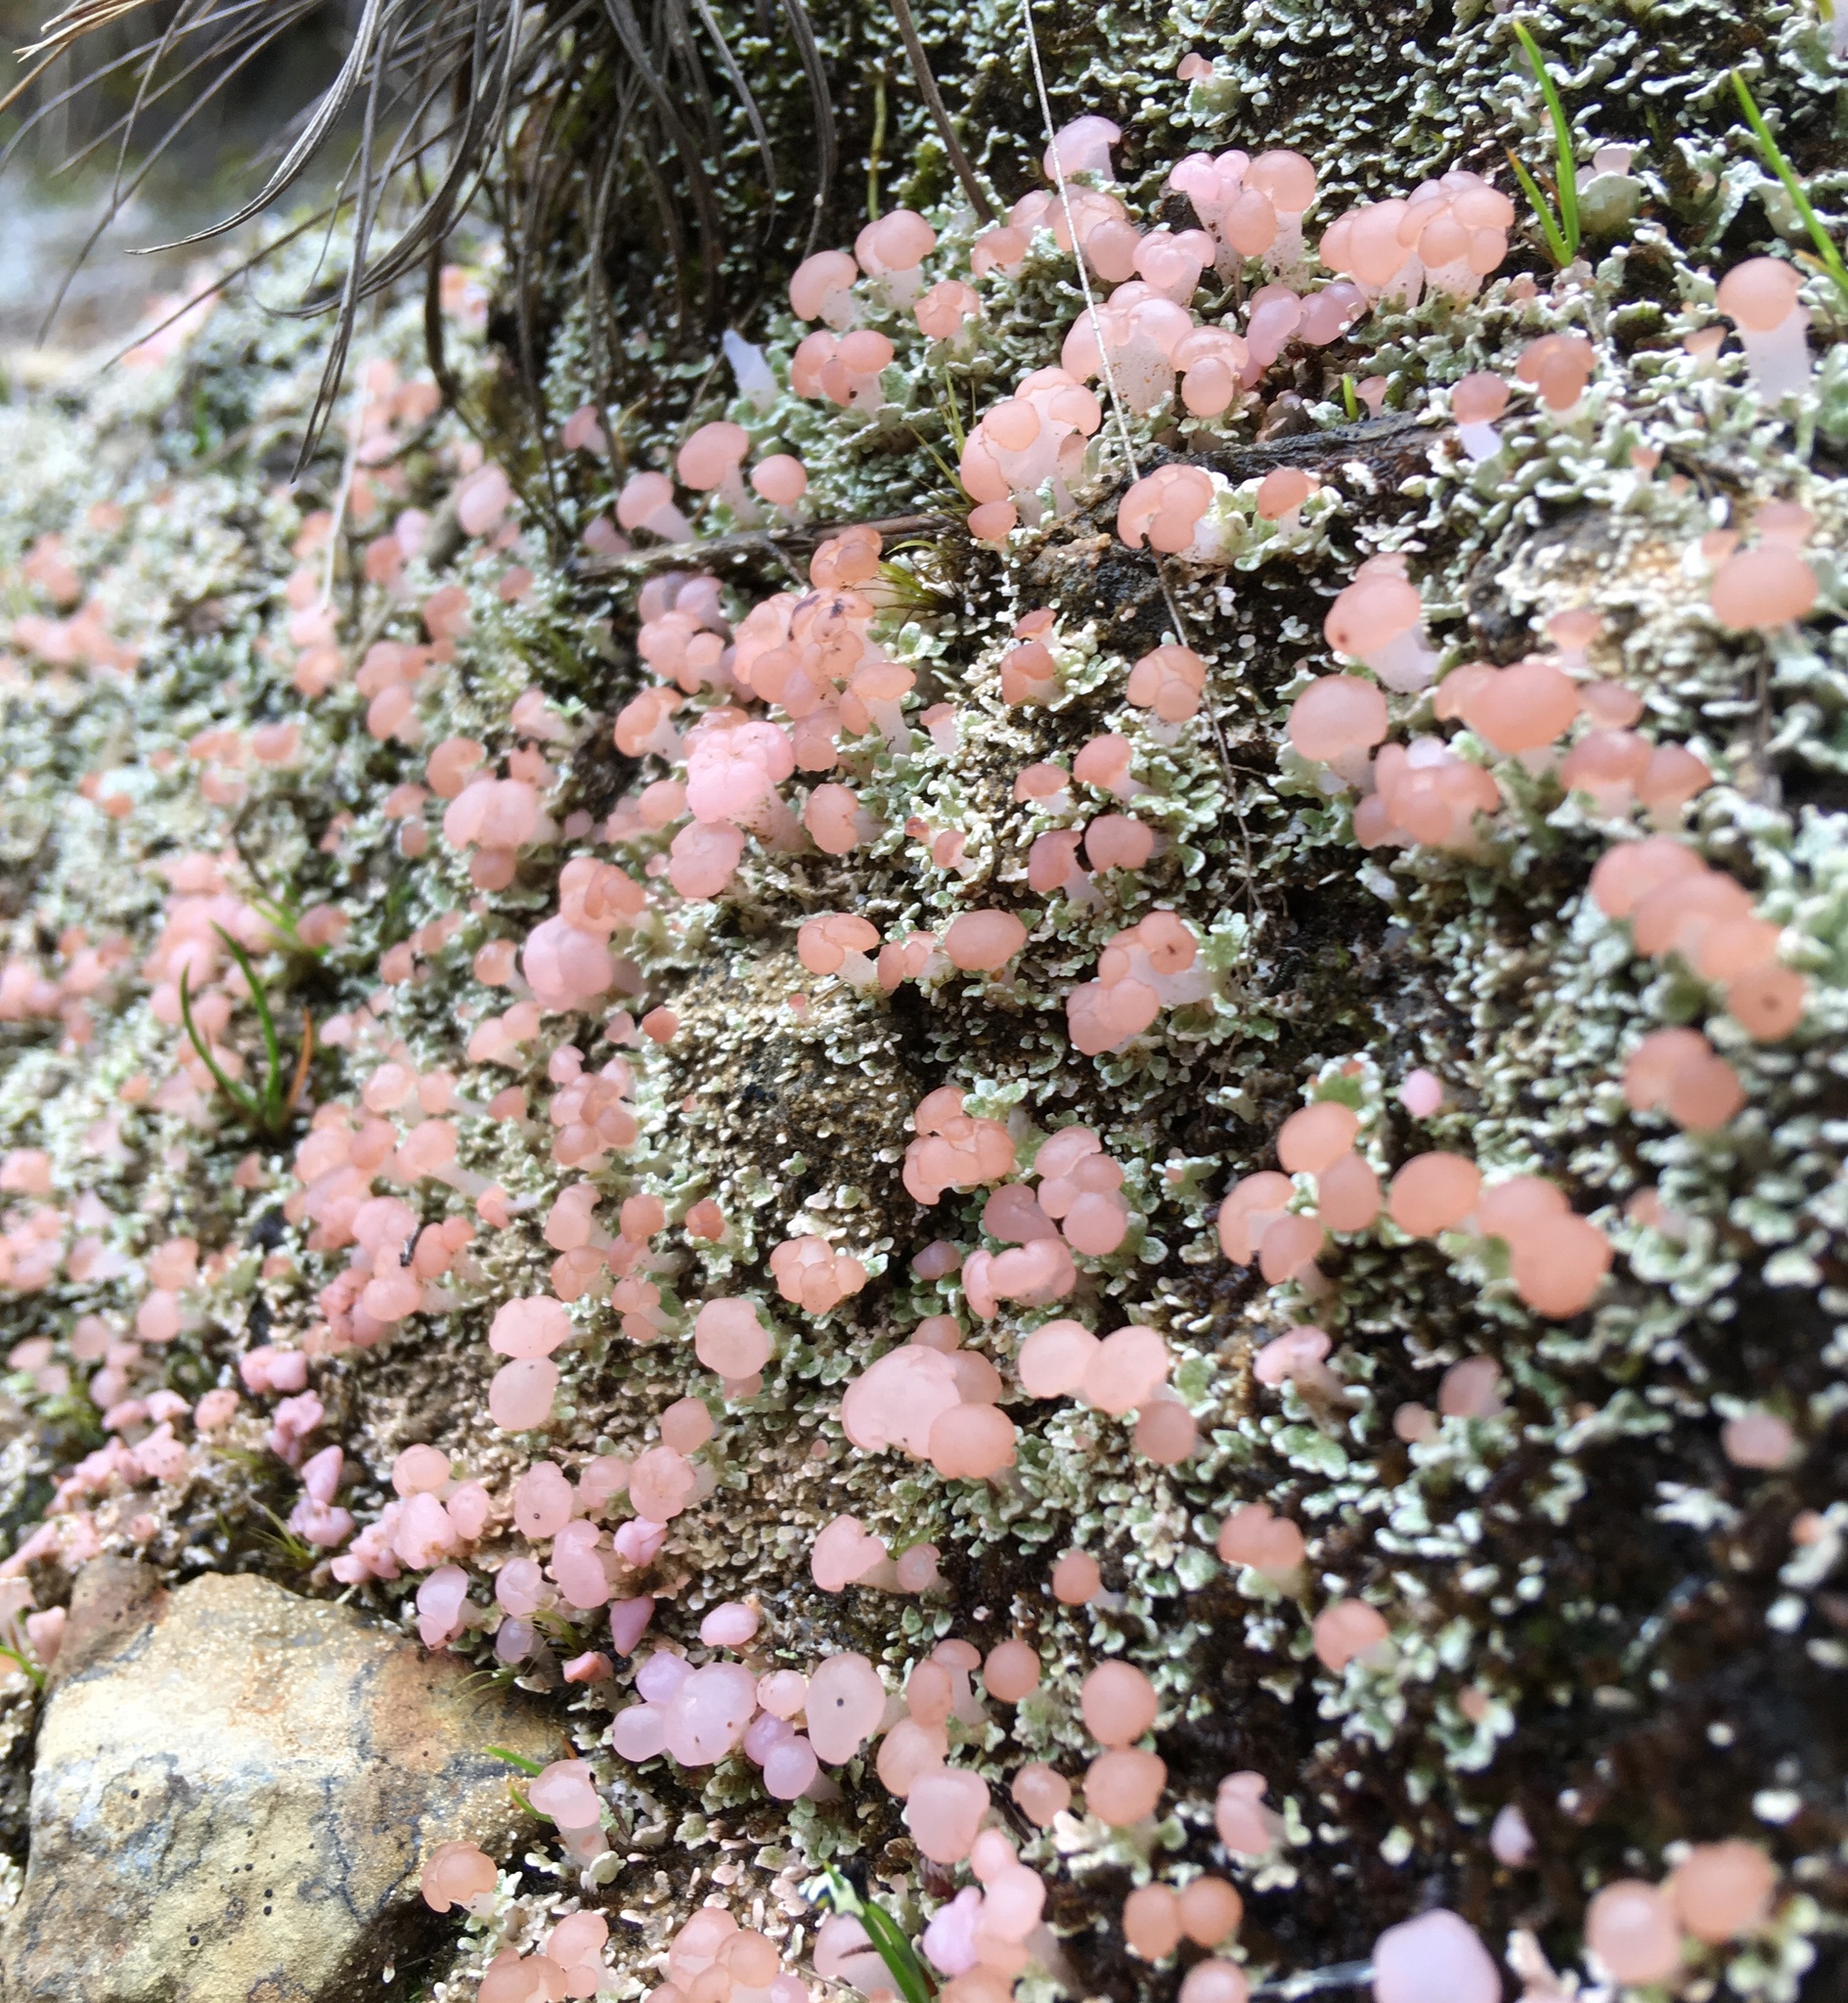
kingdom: Fungi
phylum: Ascomycota
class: Lecanoromycetes
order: Baeomycetales
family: Baeomycetaceae
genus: Phyllobaeis
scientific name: Phyllobaeis imbricata
